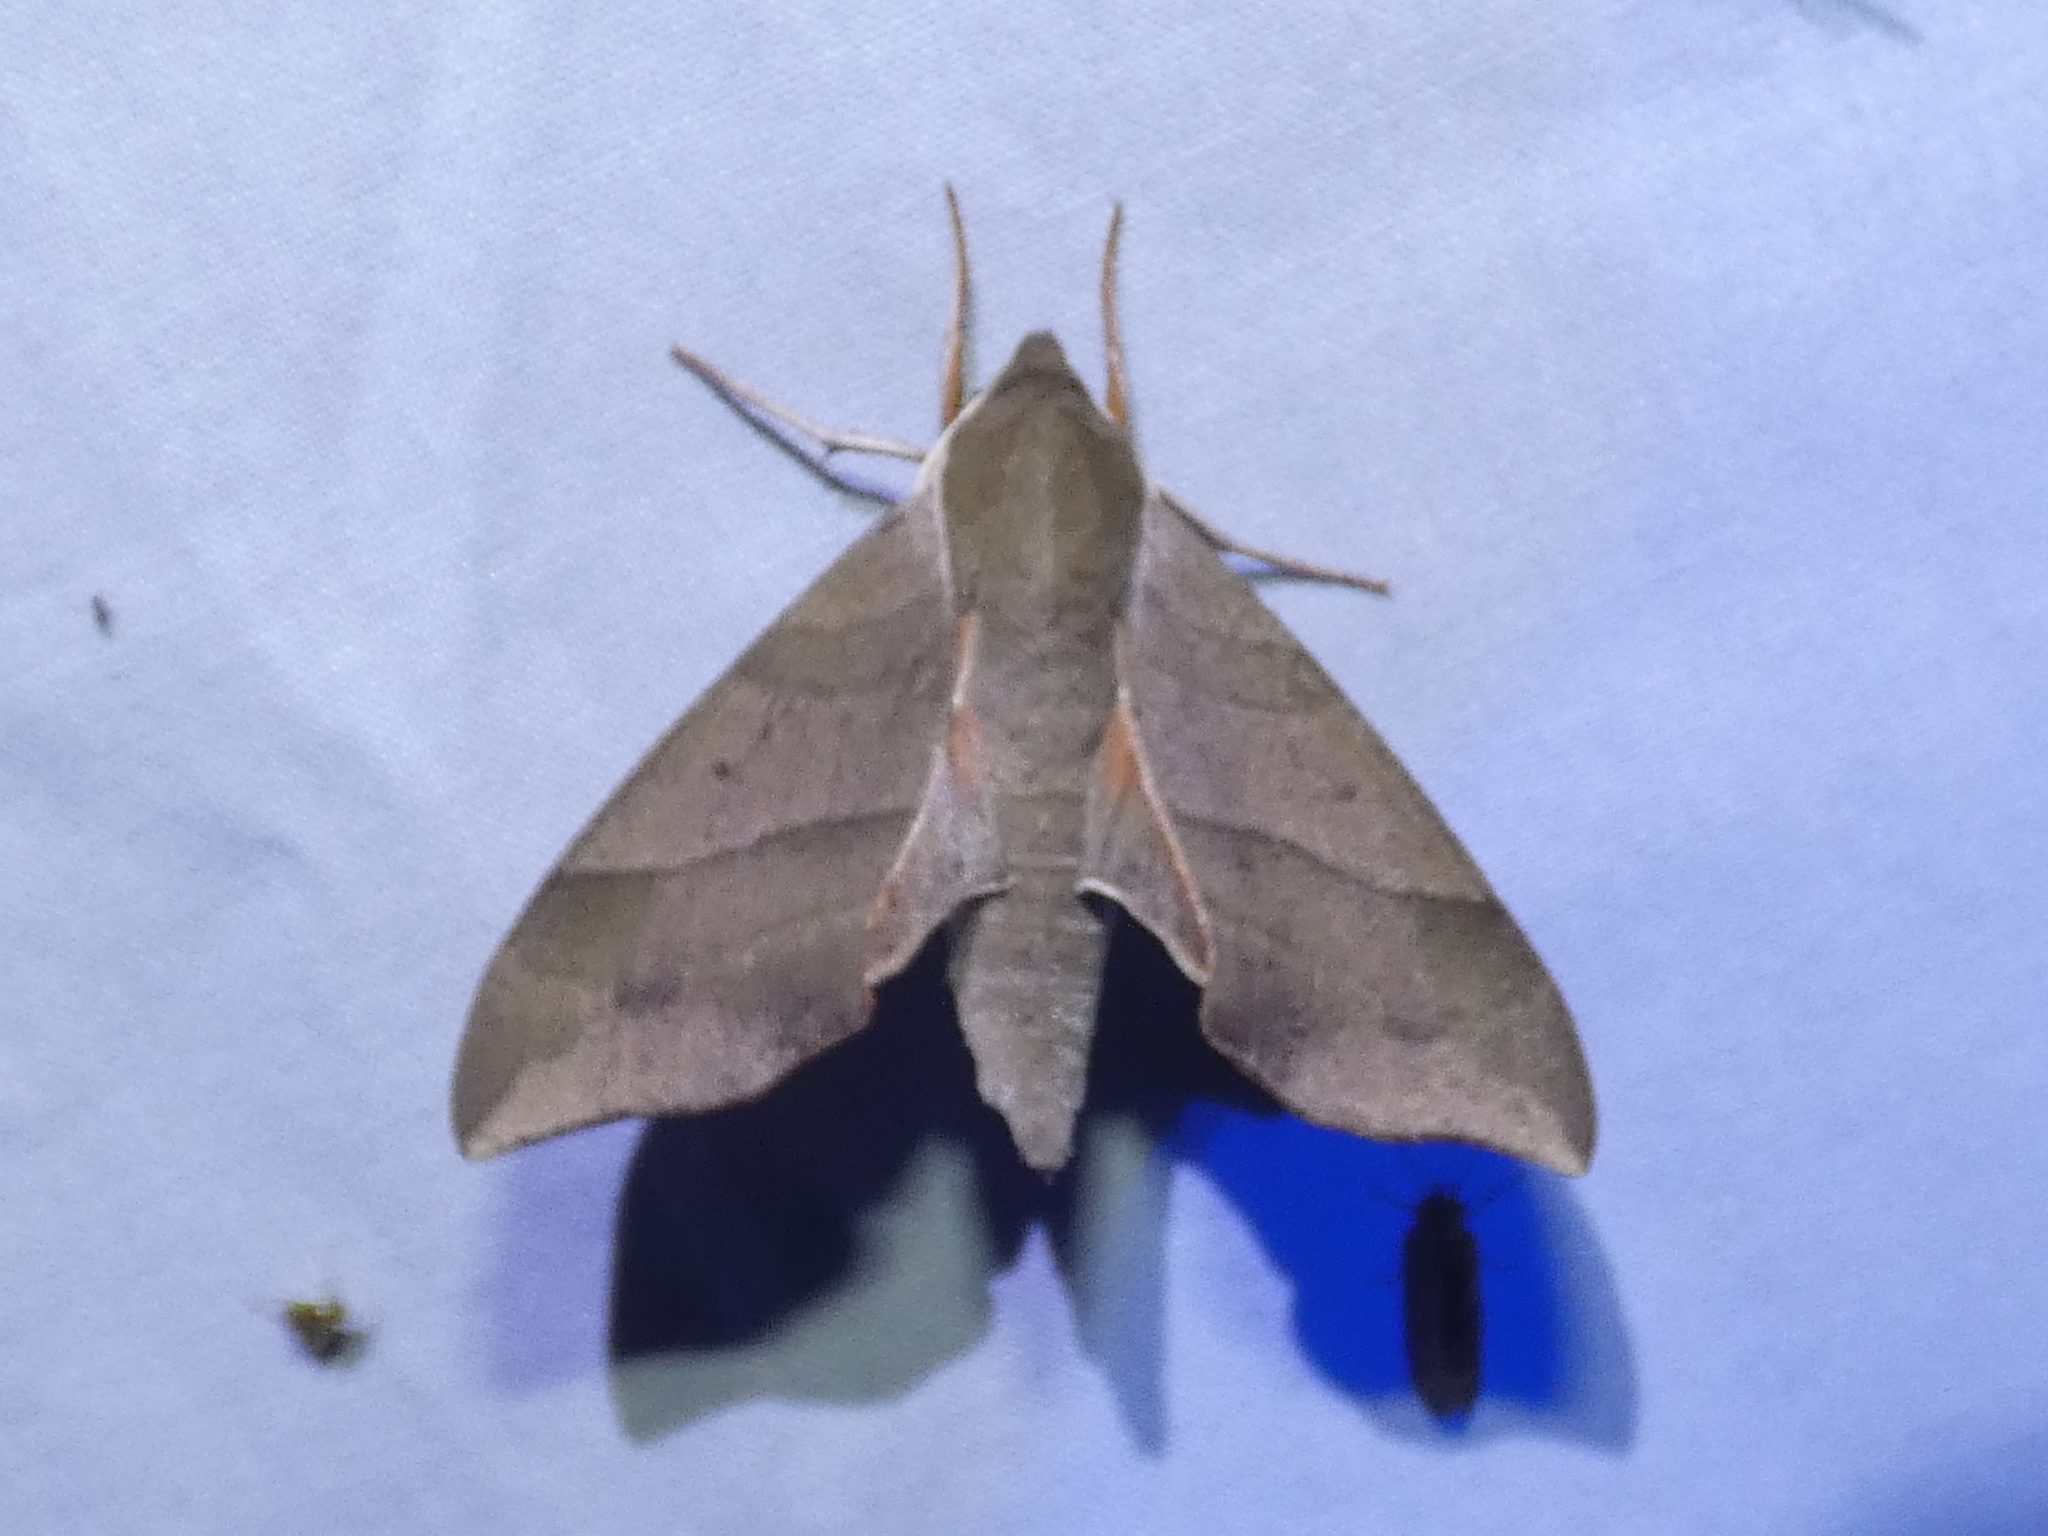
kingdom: Animalia
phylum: Arthropoda
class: Insecta
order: Lepidoptera
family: Sphingidae
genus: Darapsa
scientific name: Darapsa myron
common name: Hog sphinx
